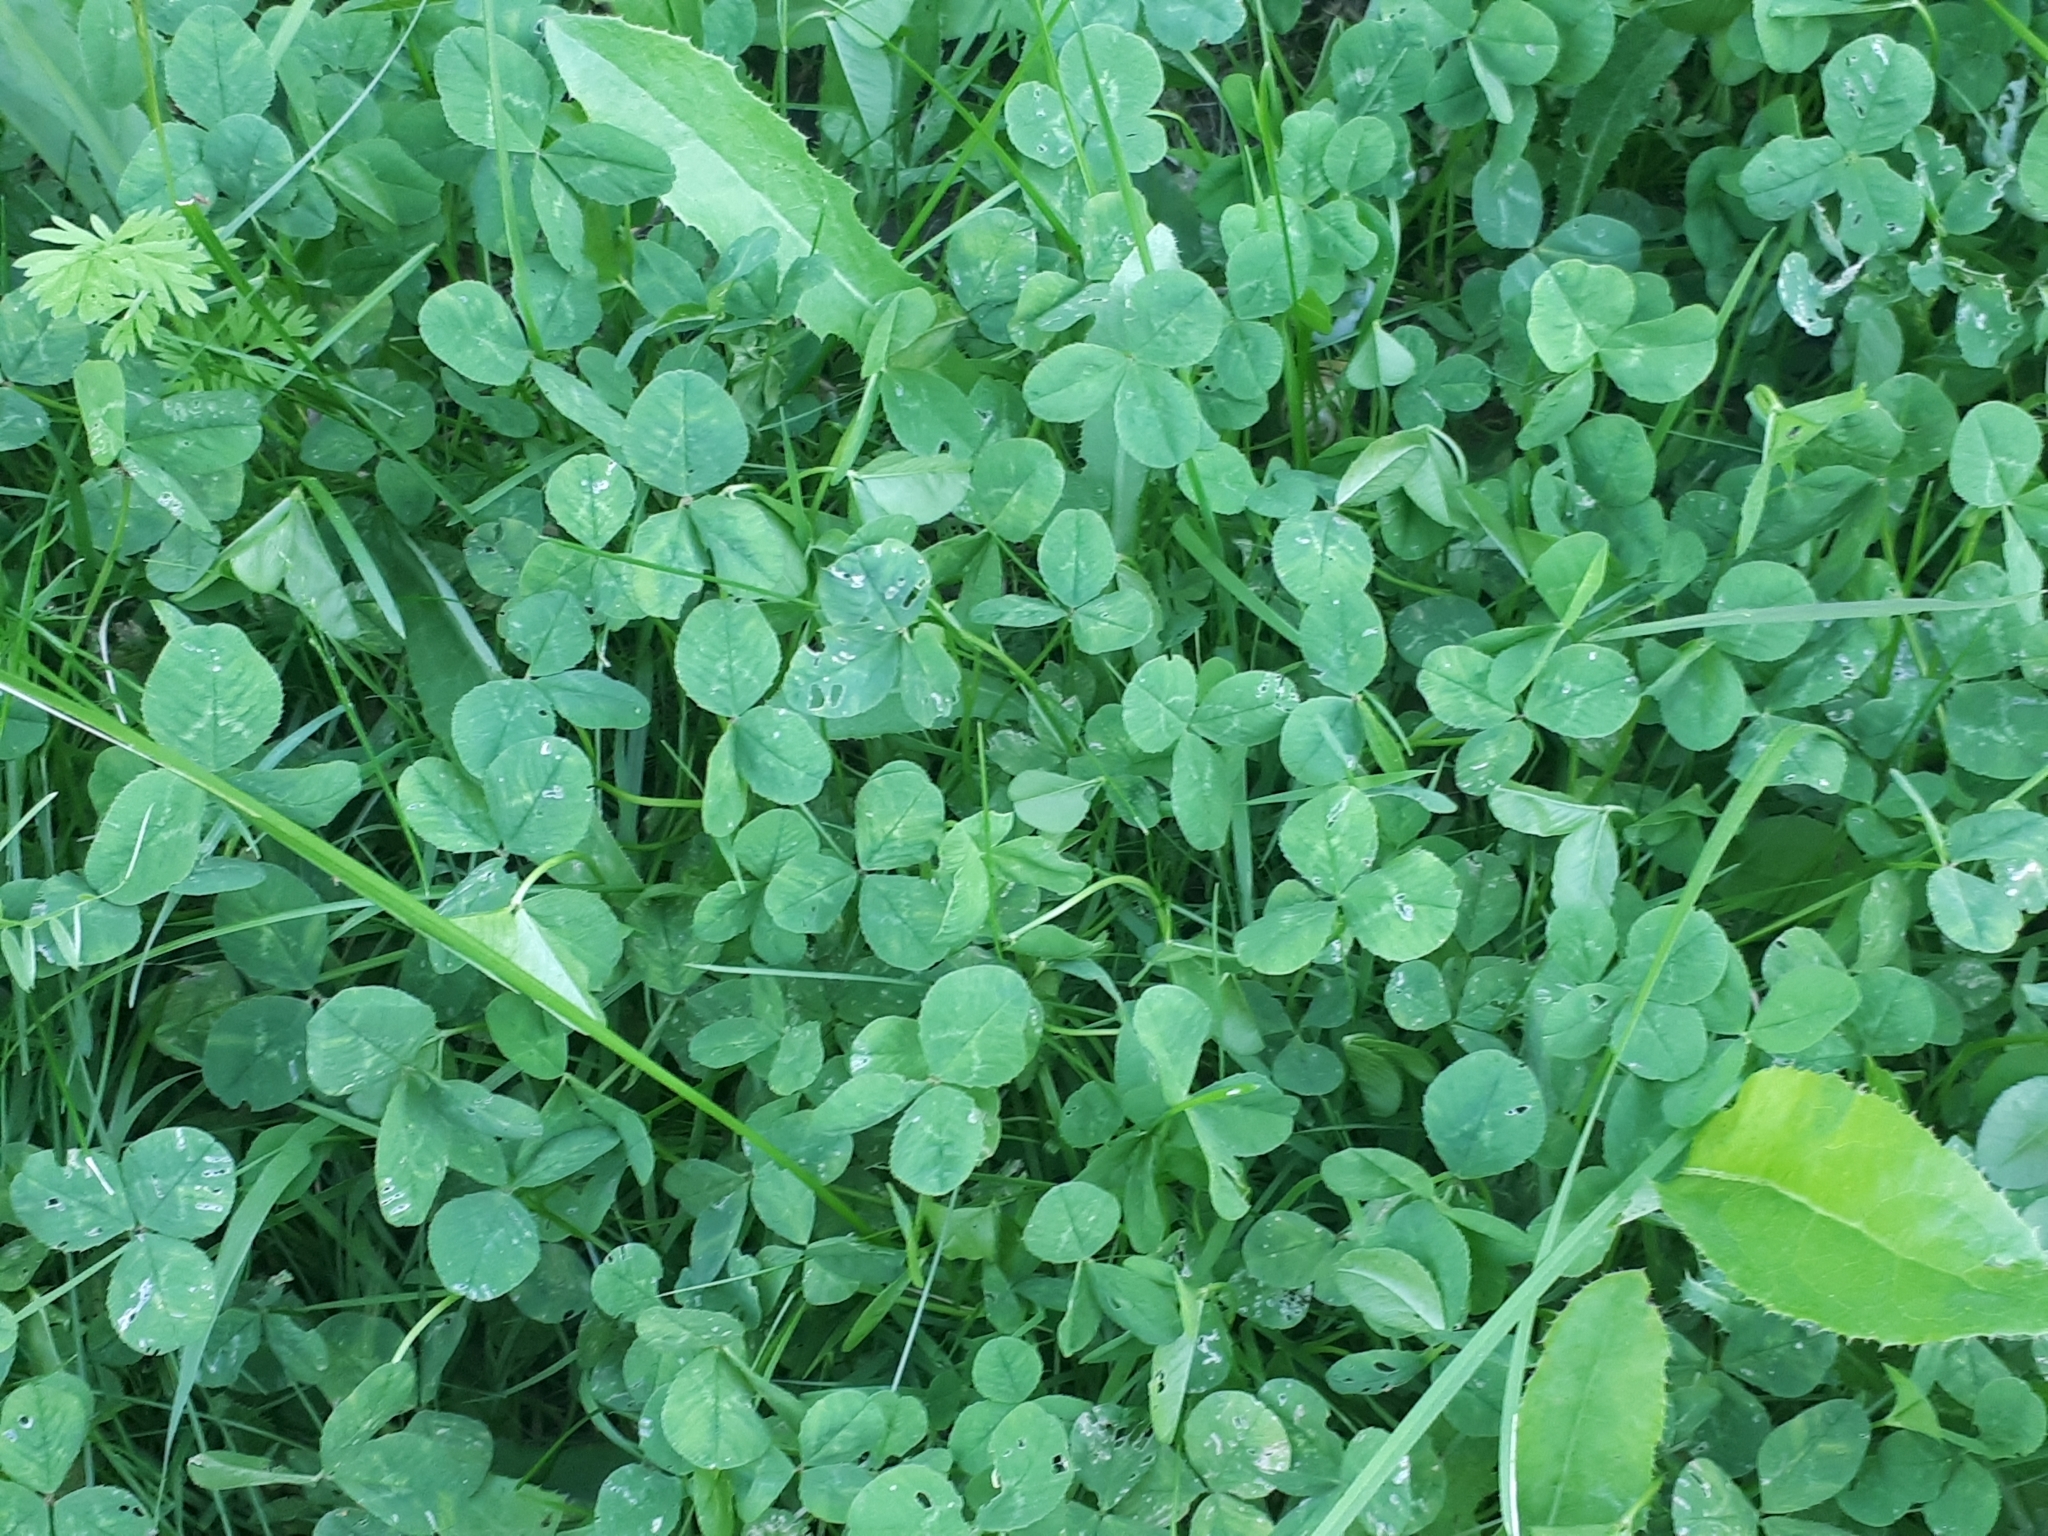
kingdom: Plantae
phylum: Tracheophyta
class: Magnoliopsida
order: Fabales
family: Fabaceae
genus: Trifolium
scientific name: Trifolium repens
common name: White clover
